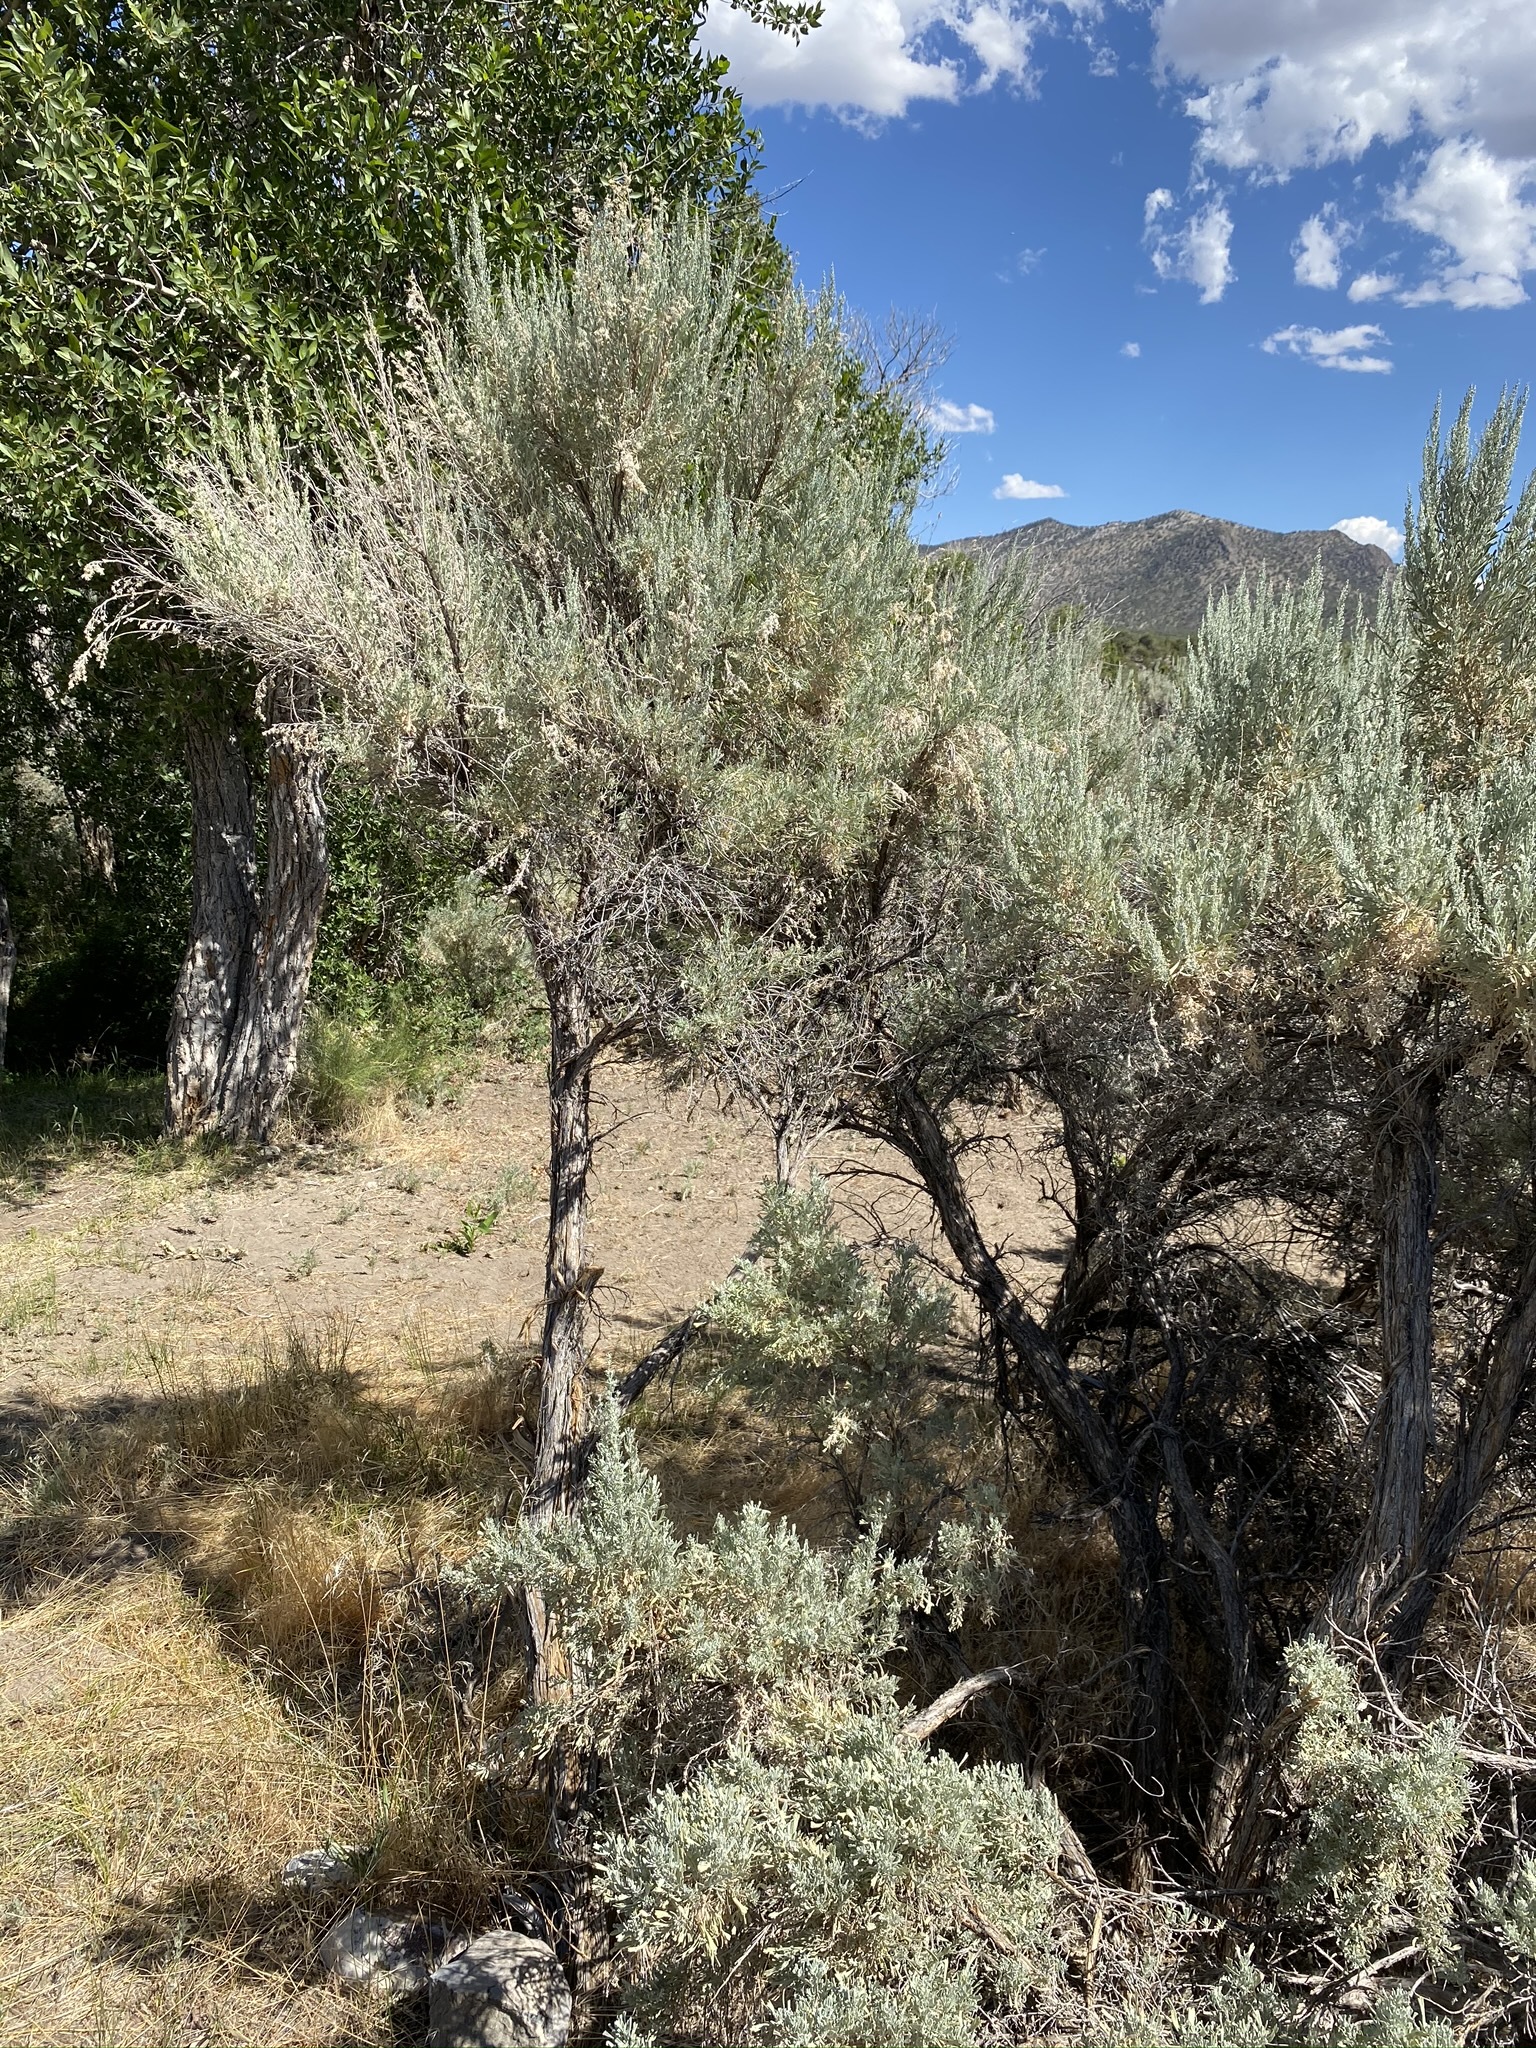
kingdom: Plantae
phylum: Tracheophyta
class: Magnoliopsida
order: Asterales
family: Asteraceae
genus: Artemisia
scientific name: Artemisia tridentata
